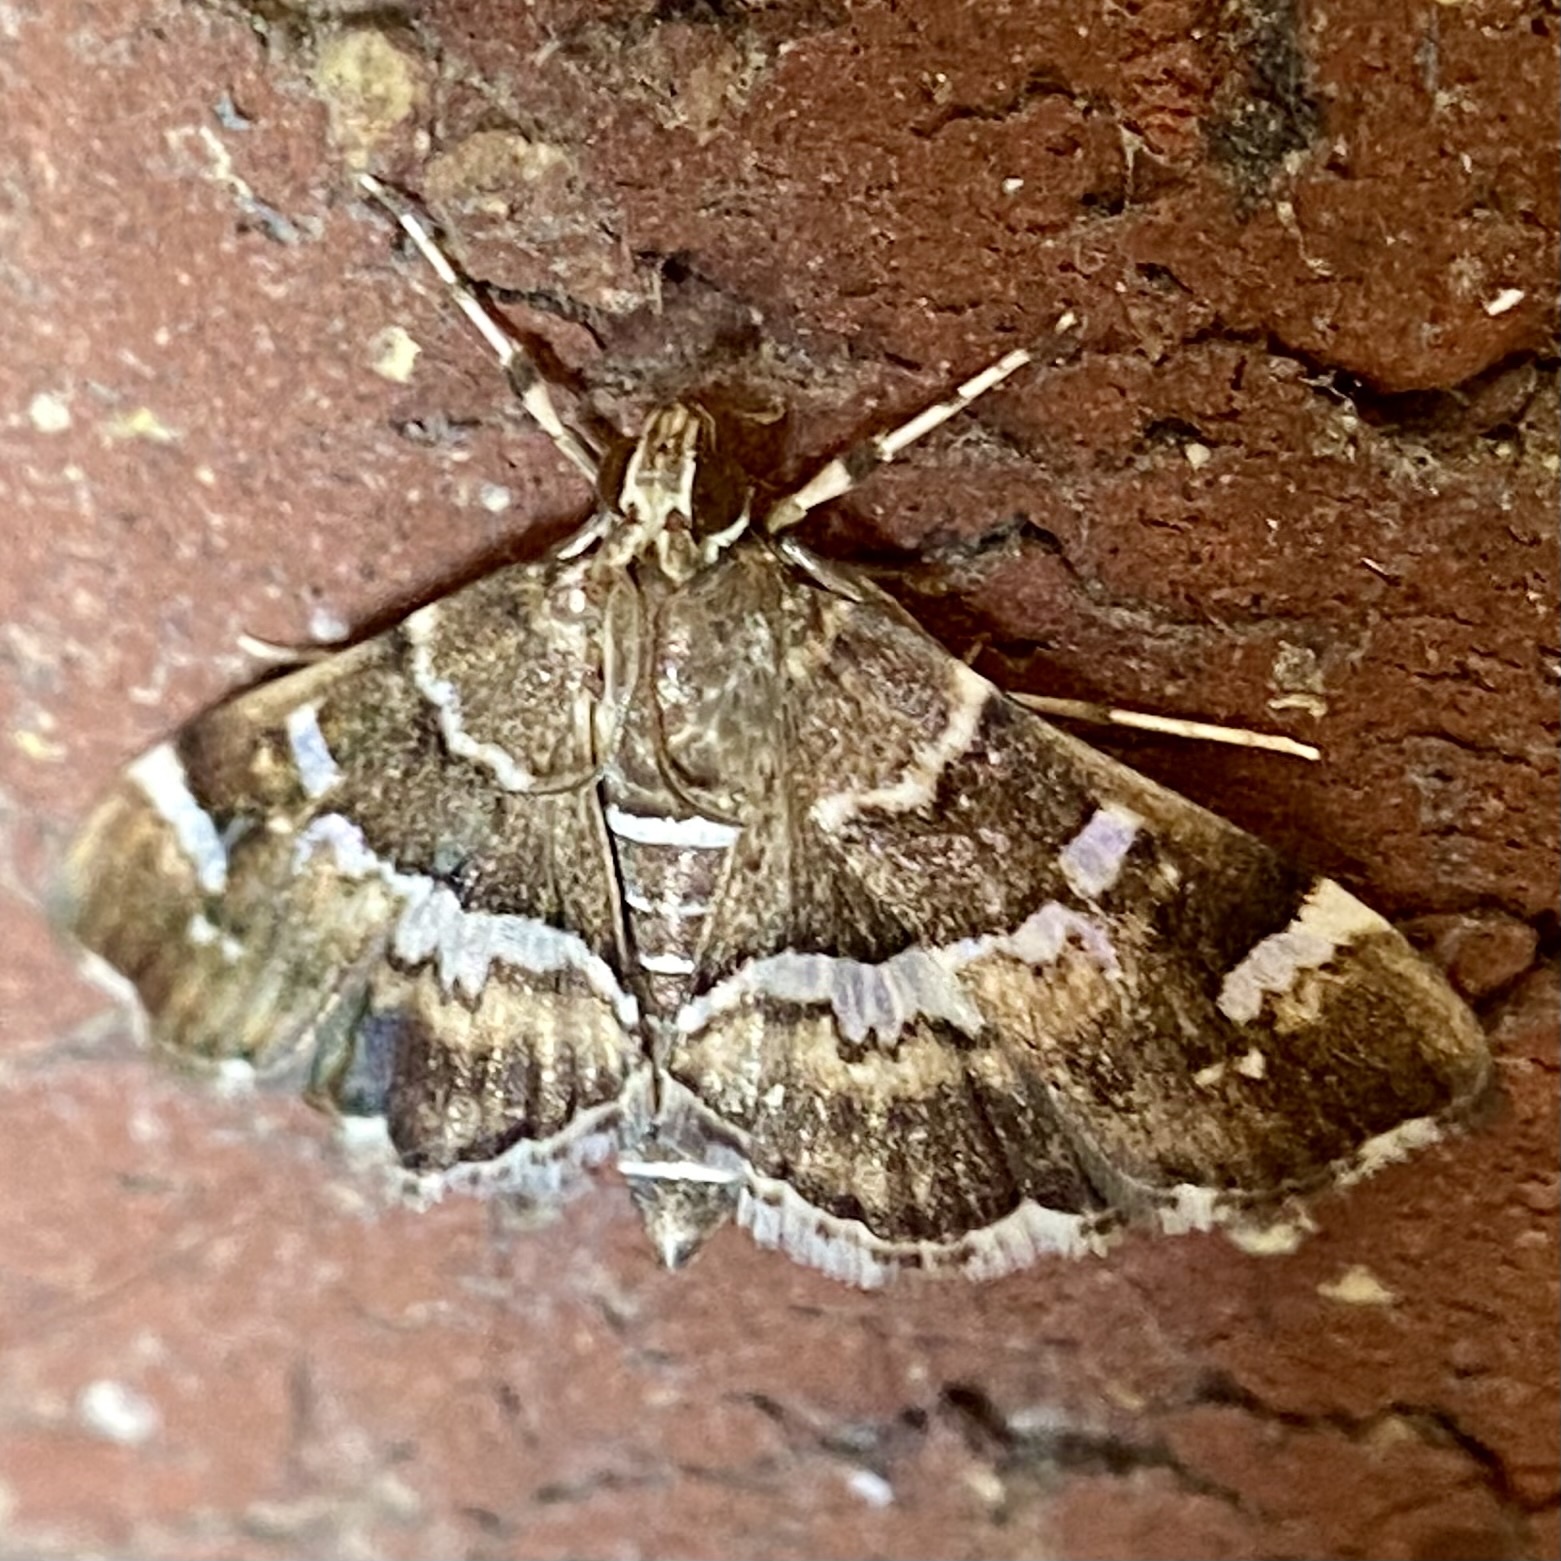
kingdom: Animalia
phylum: Arthropoda
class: Insecta
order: Lepidoptera
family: Crambidae
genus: Hymenia
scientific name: Hymenia perspectalis
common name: Spotted beet webworm
